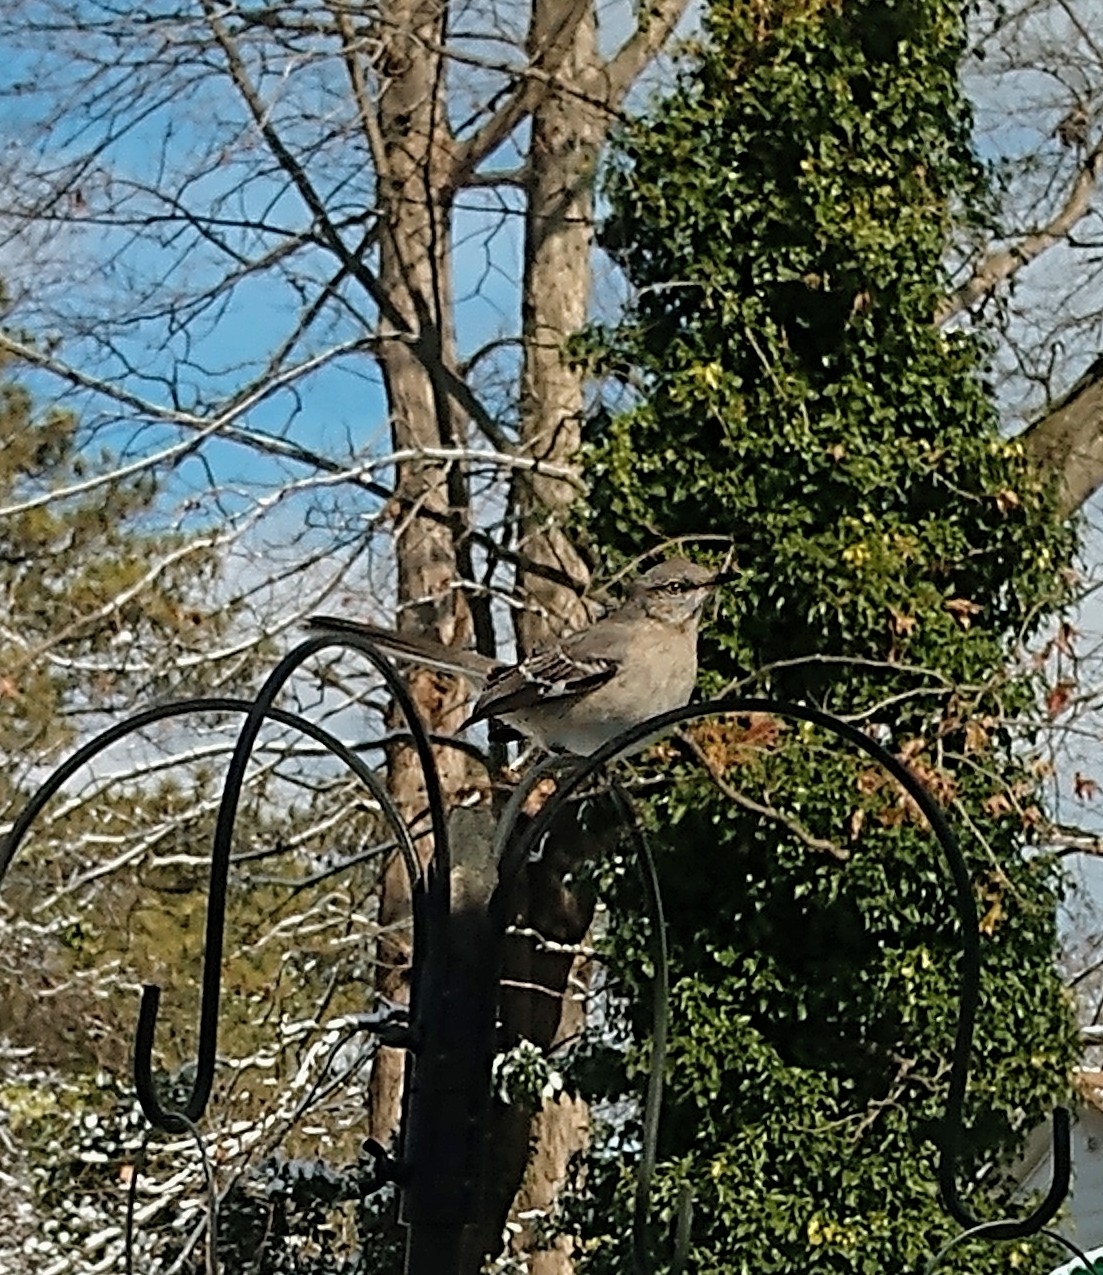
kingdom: Animalia
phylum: Chordata
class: Aves
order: Passeriformes
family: Mimidae
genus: Mimus
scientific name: Mimus polyglottos
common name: Northern mockingbird
